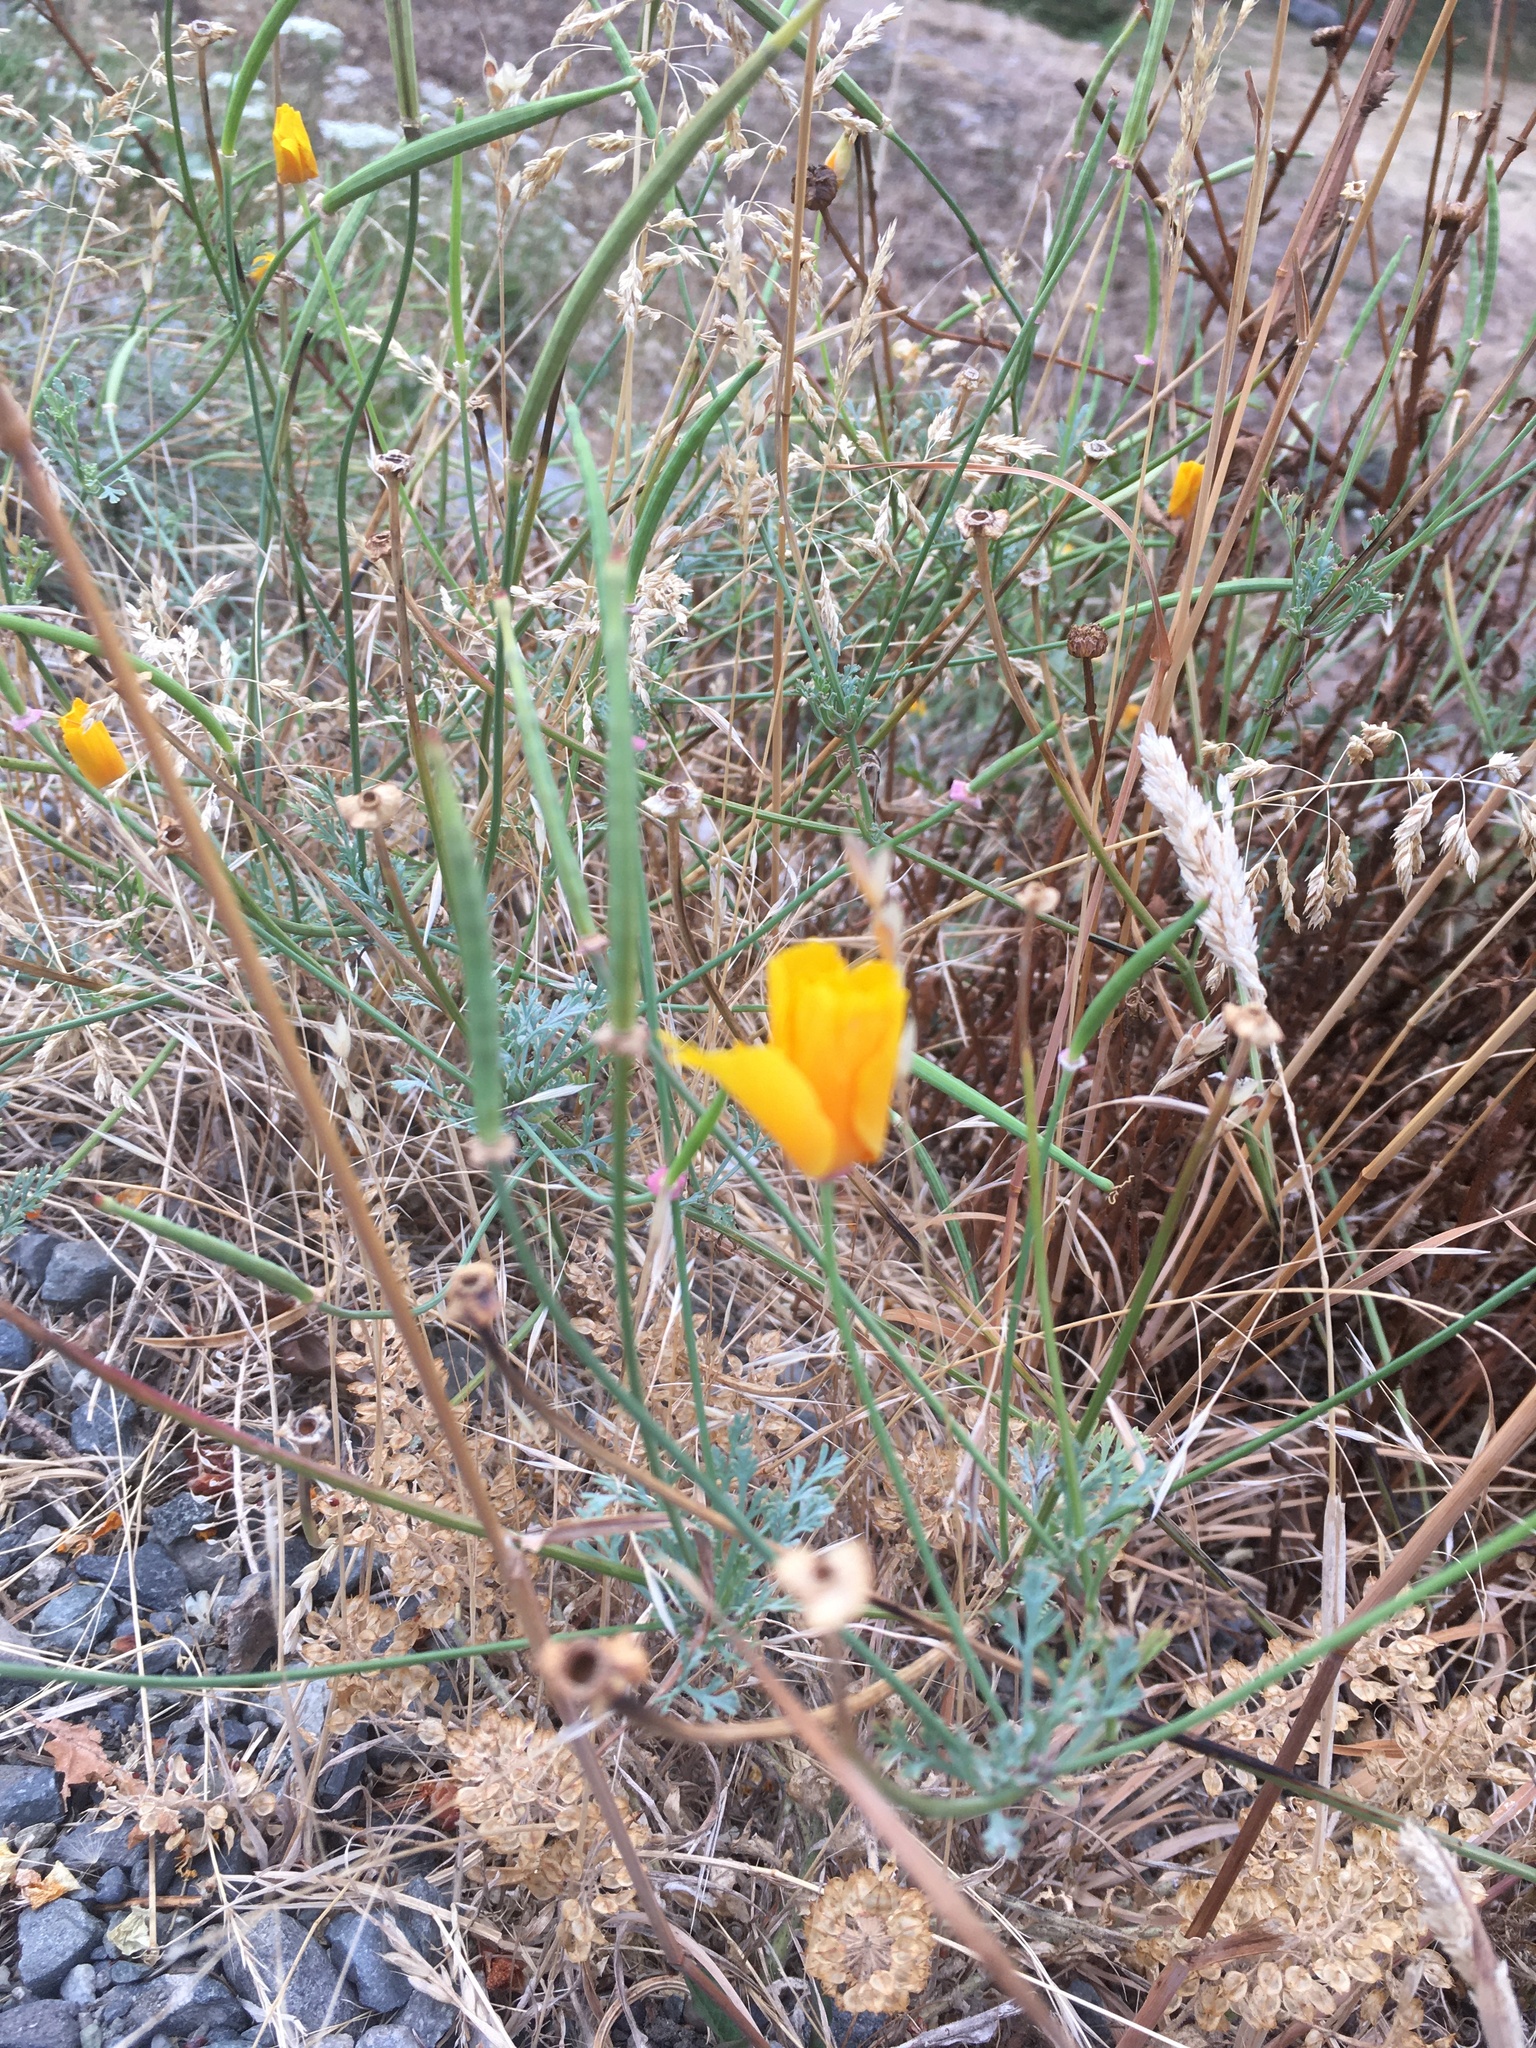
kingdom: Plantae
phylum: Tracheophyta
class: Magnoliopsida
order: Ranunculales
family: Papaveraceae
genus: Eschscholzia
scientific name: Eschscholzia californica
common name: California poppy
